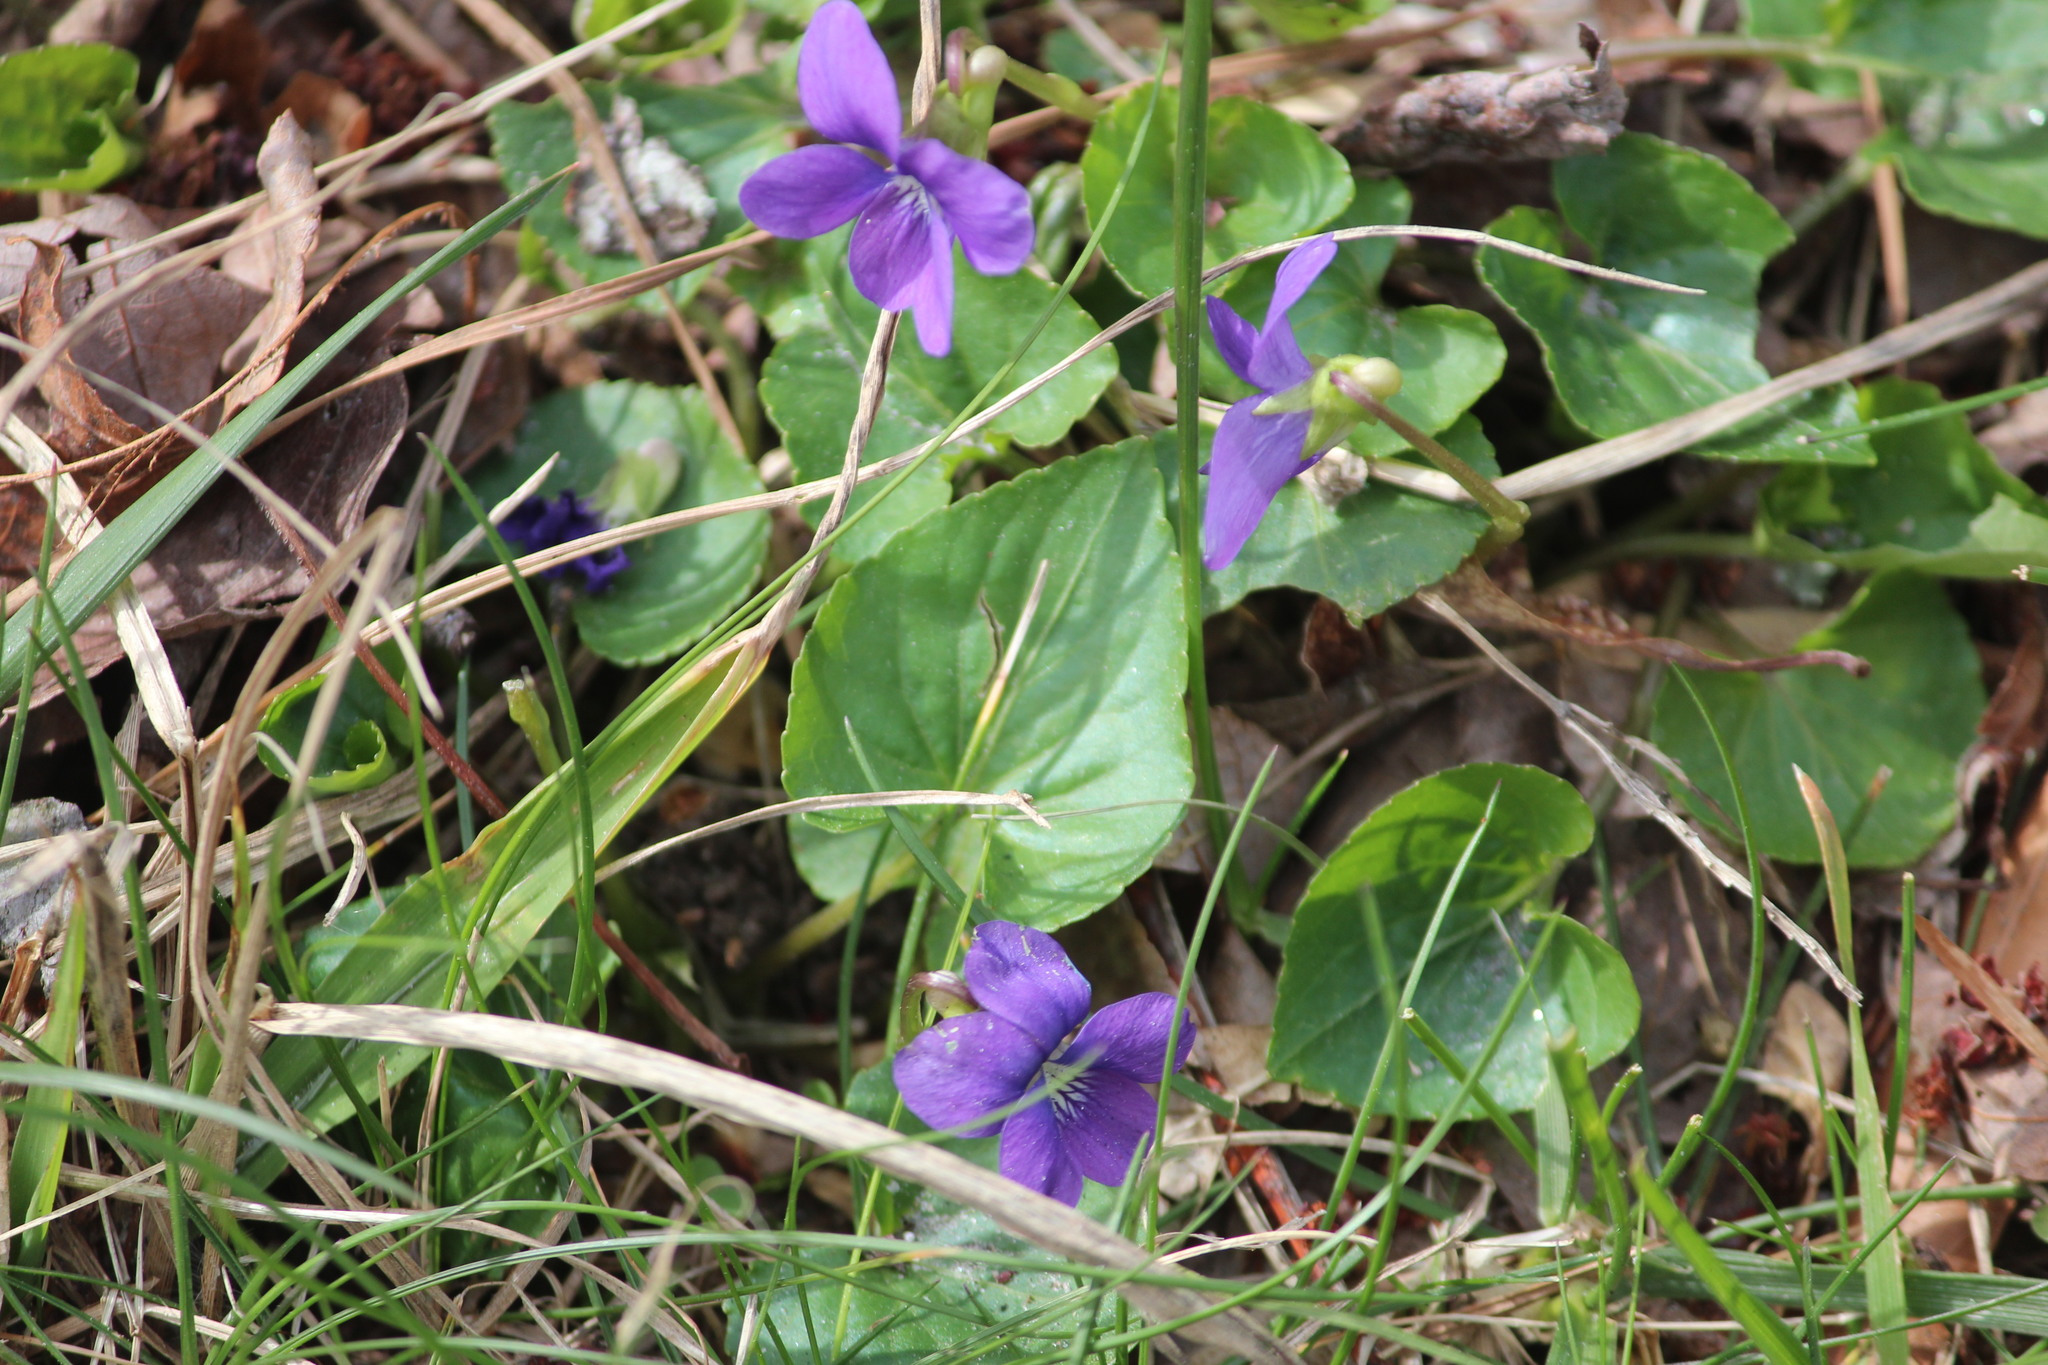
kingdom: Plantae
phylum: Tracheophyta
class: Magnoliopsida
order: Malpighiales
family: Violaceae
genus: Viola
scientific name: Viola sororia
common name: Dooryard violet
